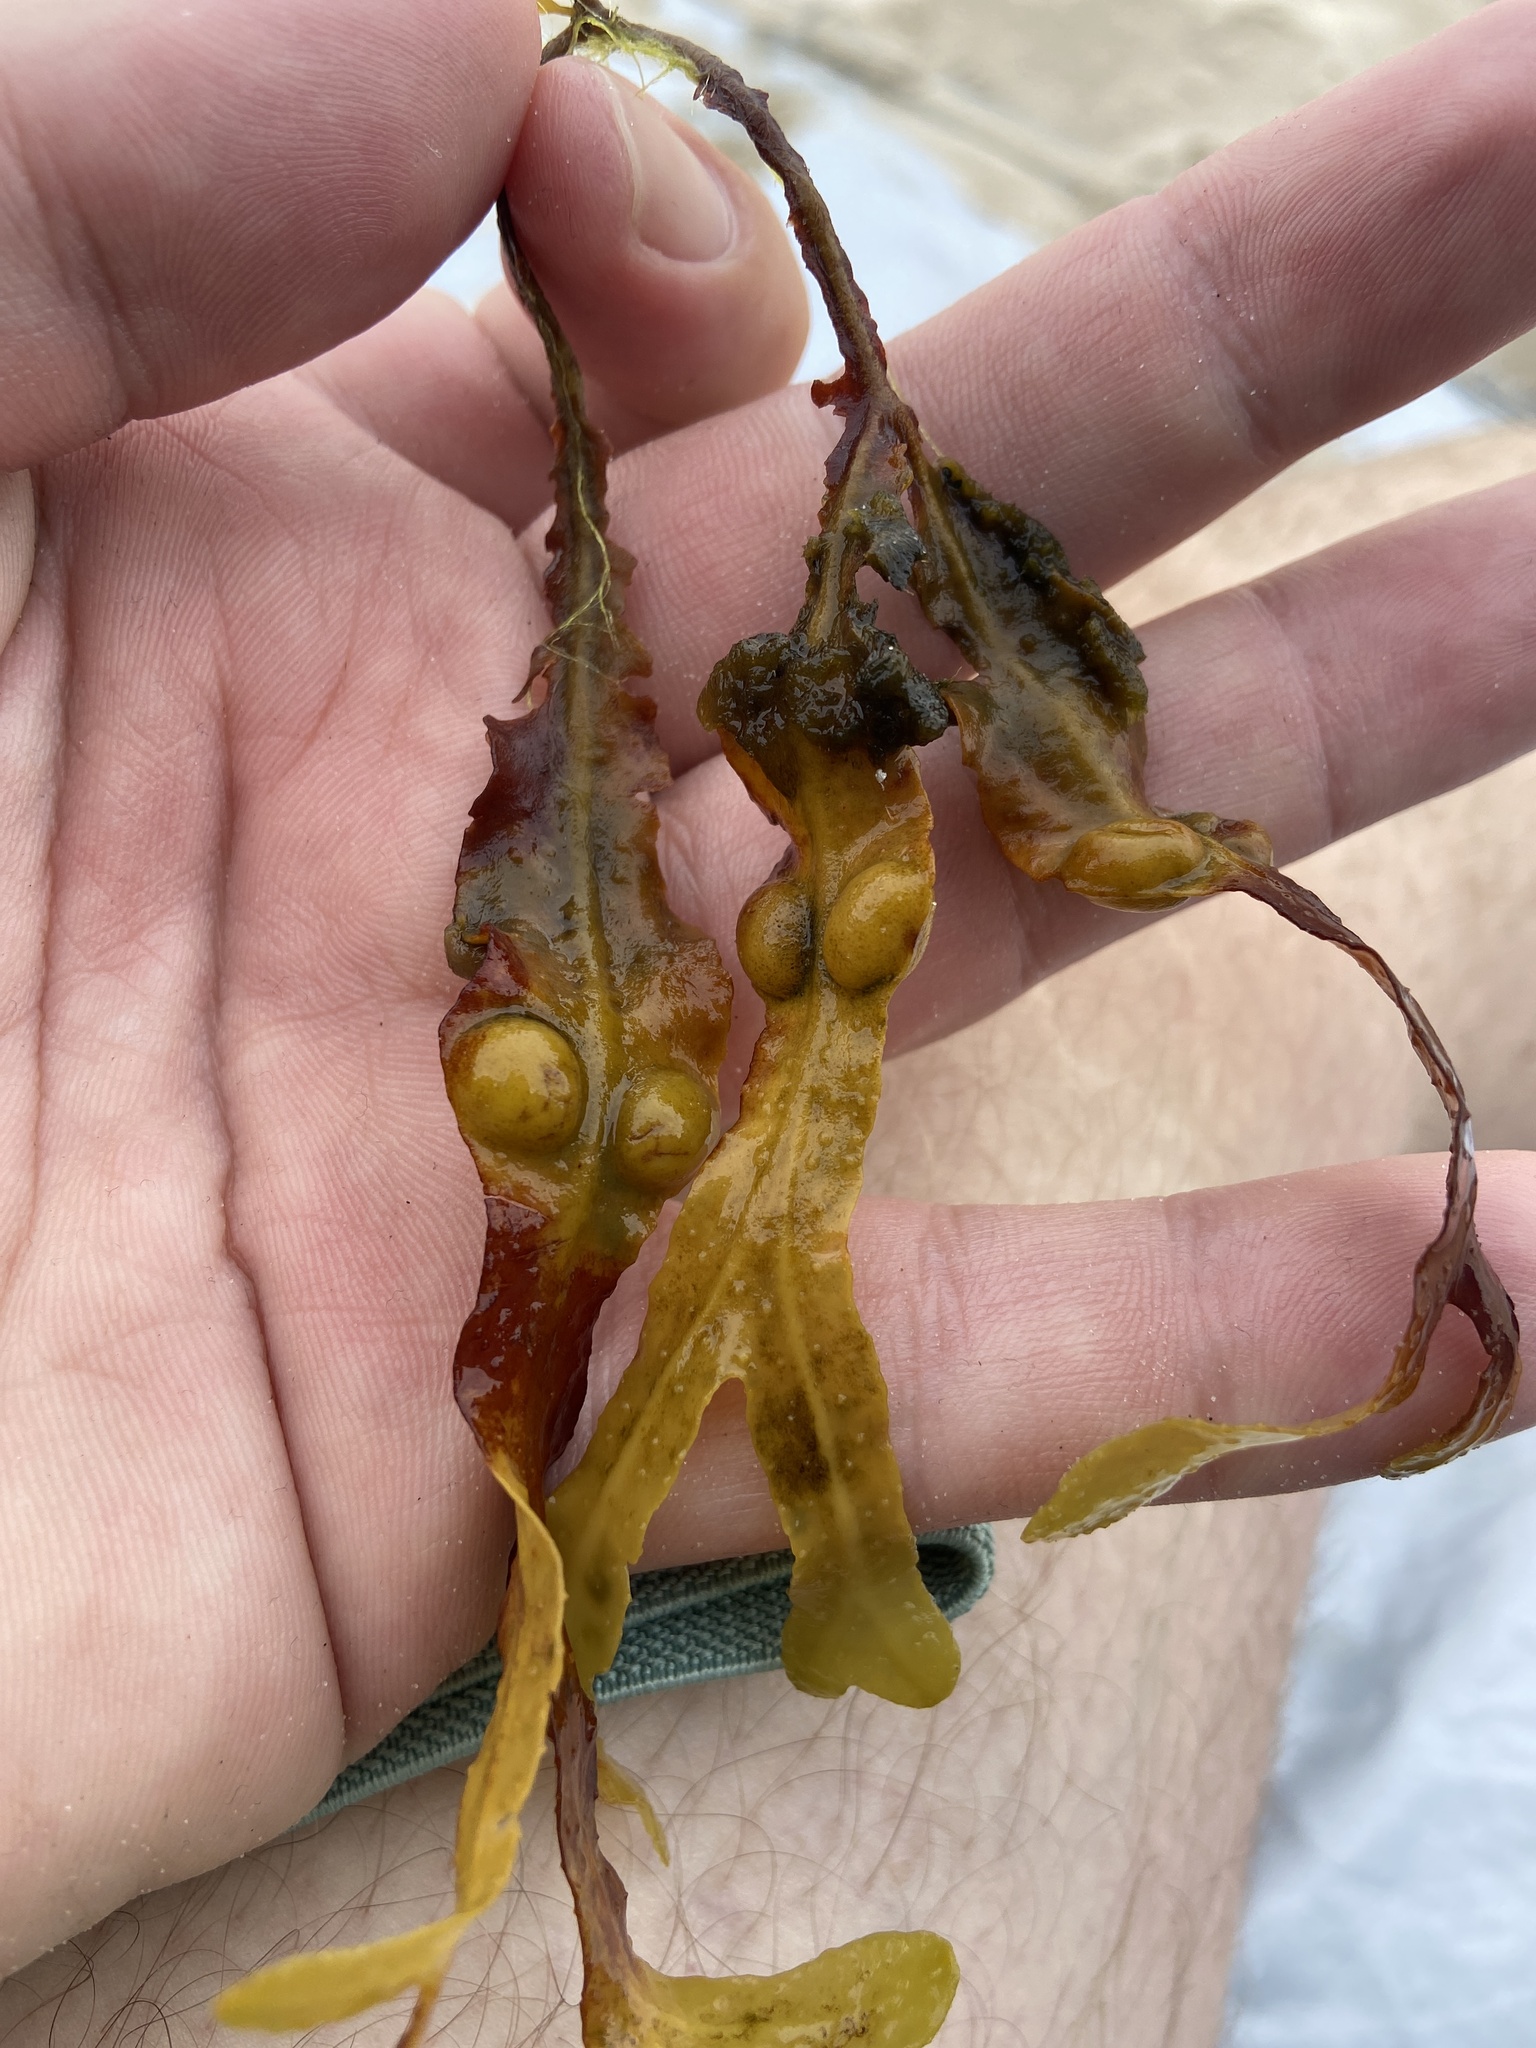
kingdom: Chromista
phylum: Ochrophyta
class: Phaeophyceae
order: Fucales
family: Fucaceae
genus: Fucus
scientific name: Fucus vesiculosus
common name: Bladder wrack
